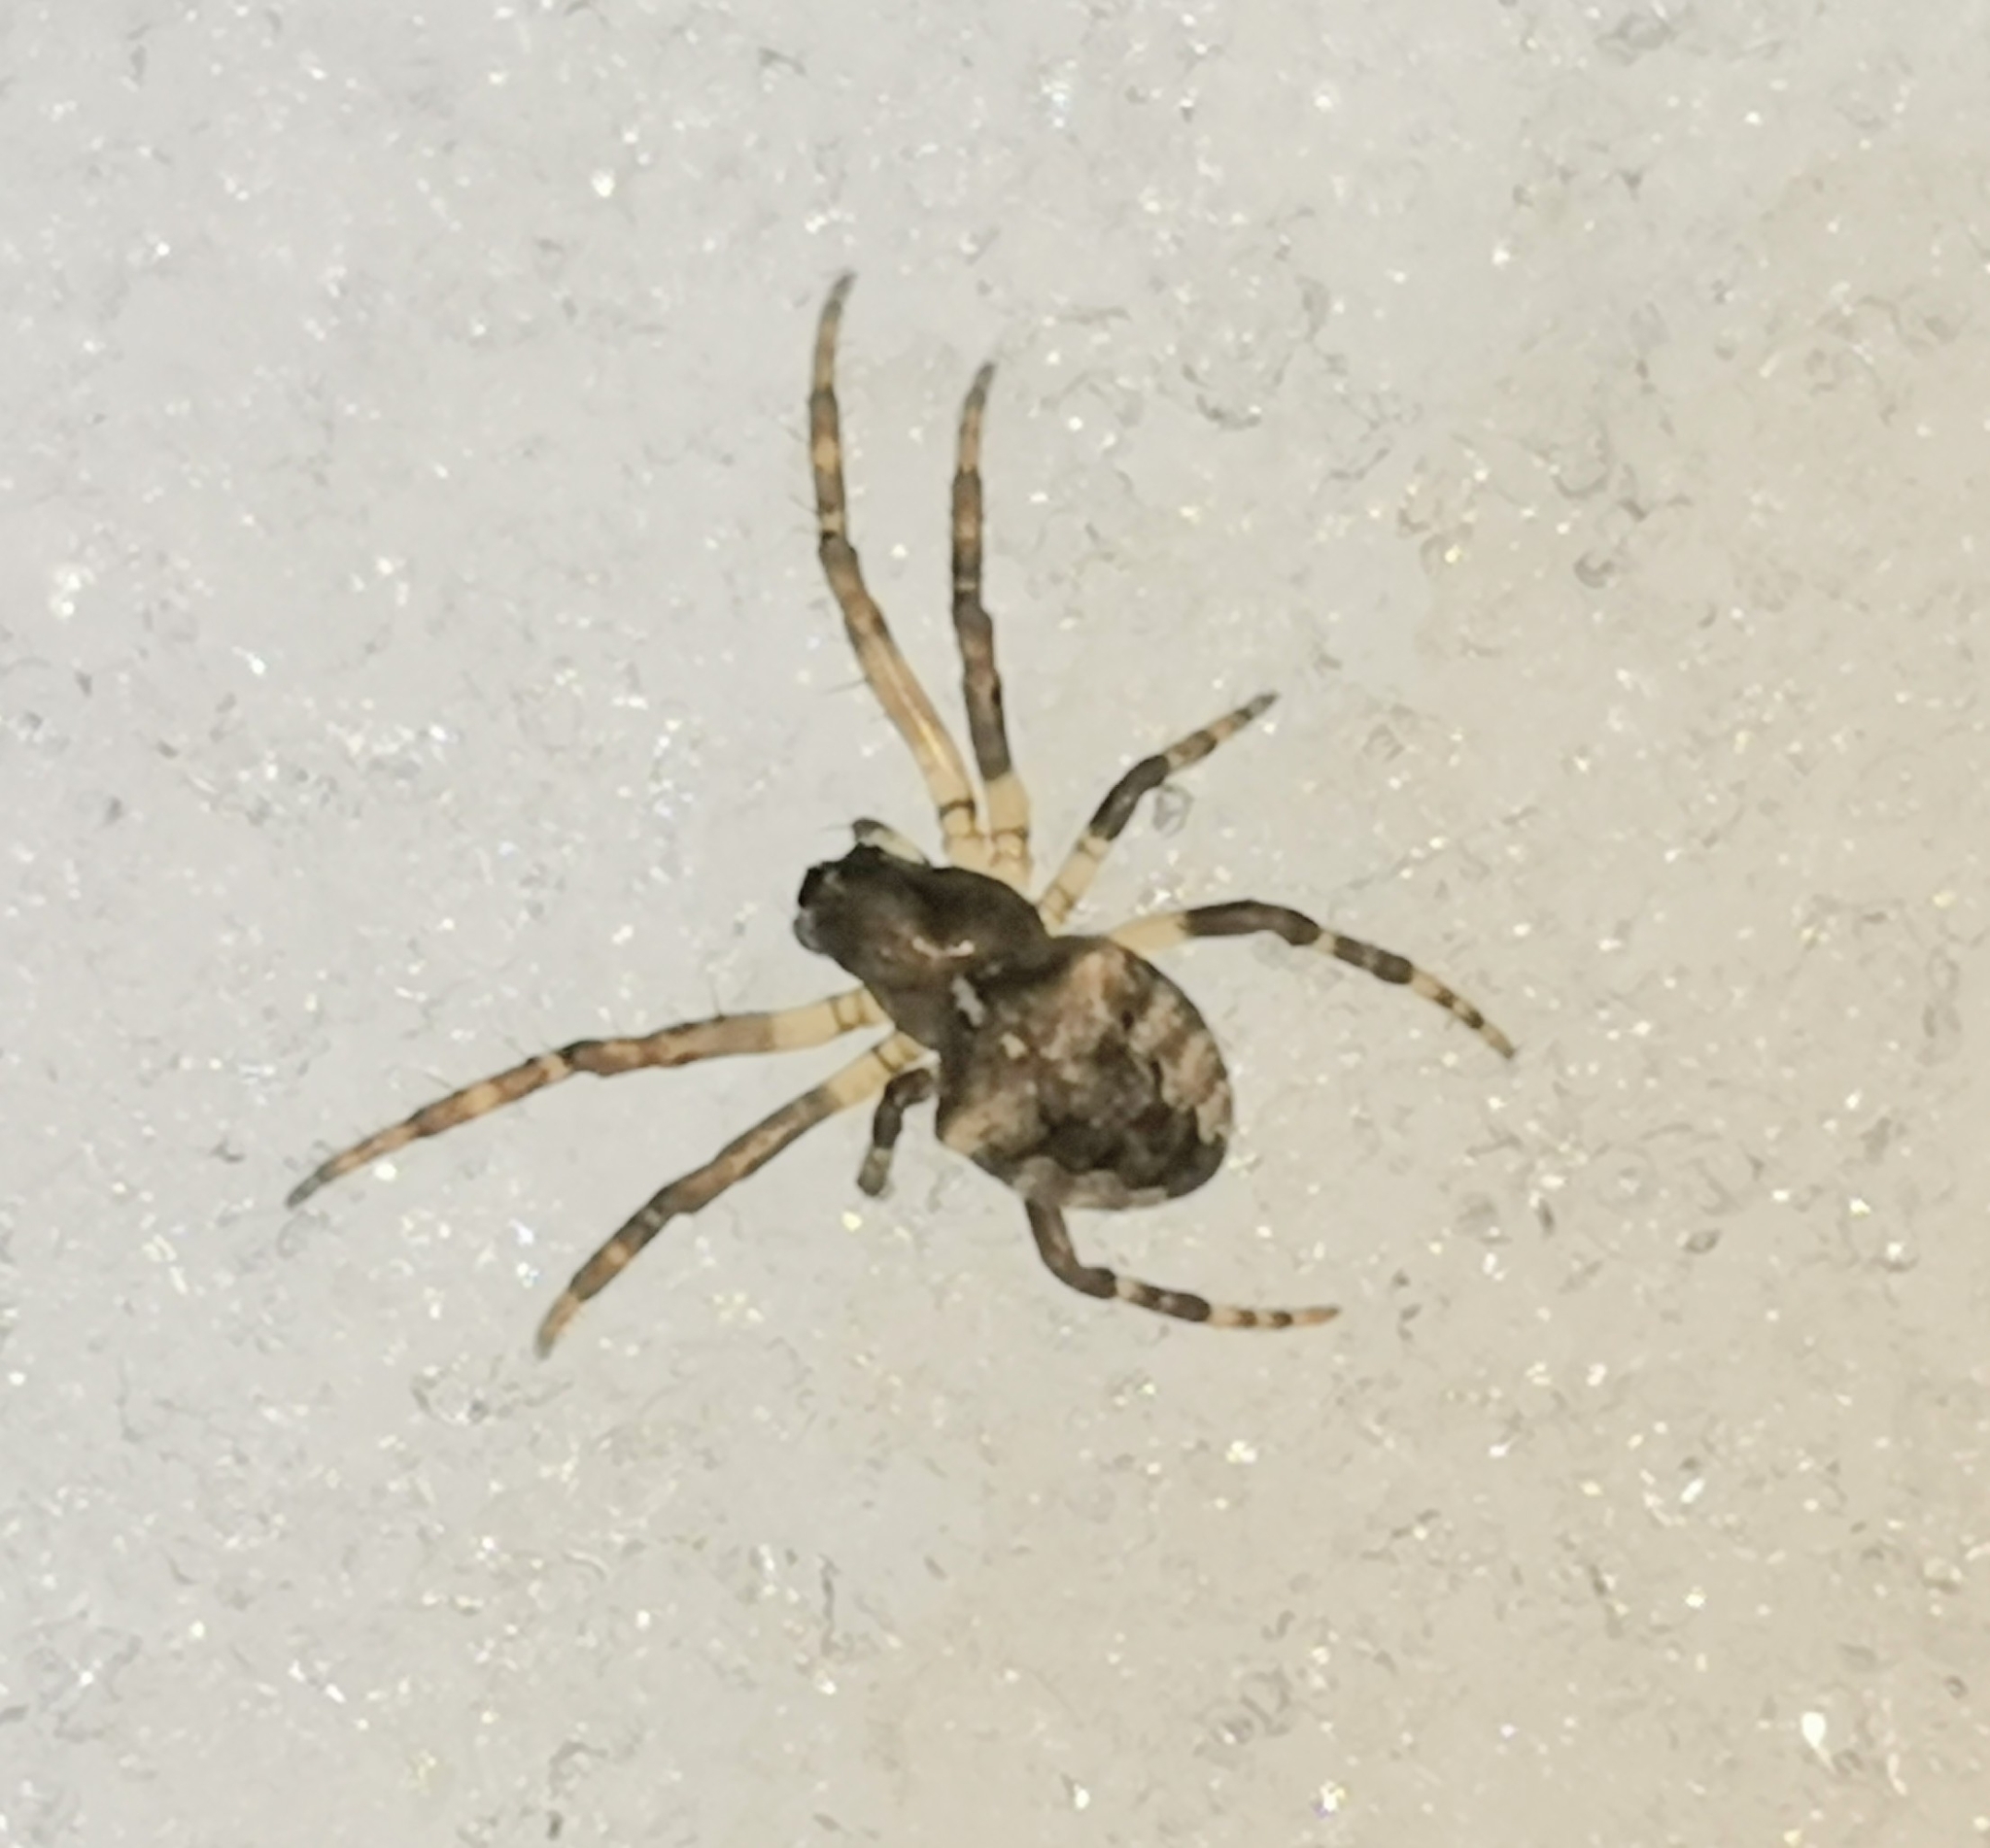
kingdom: Animalia
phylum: Arthropoda
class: Arachnida
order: Araneae
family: Araneidae
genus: Gibbaranea
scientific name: Gibbaranea omoeda
